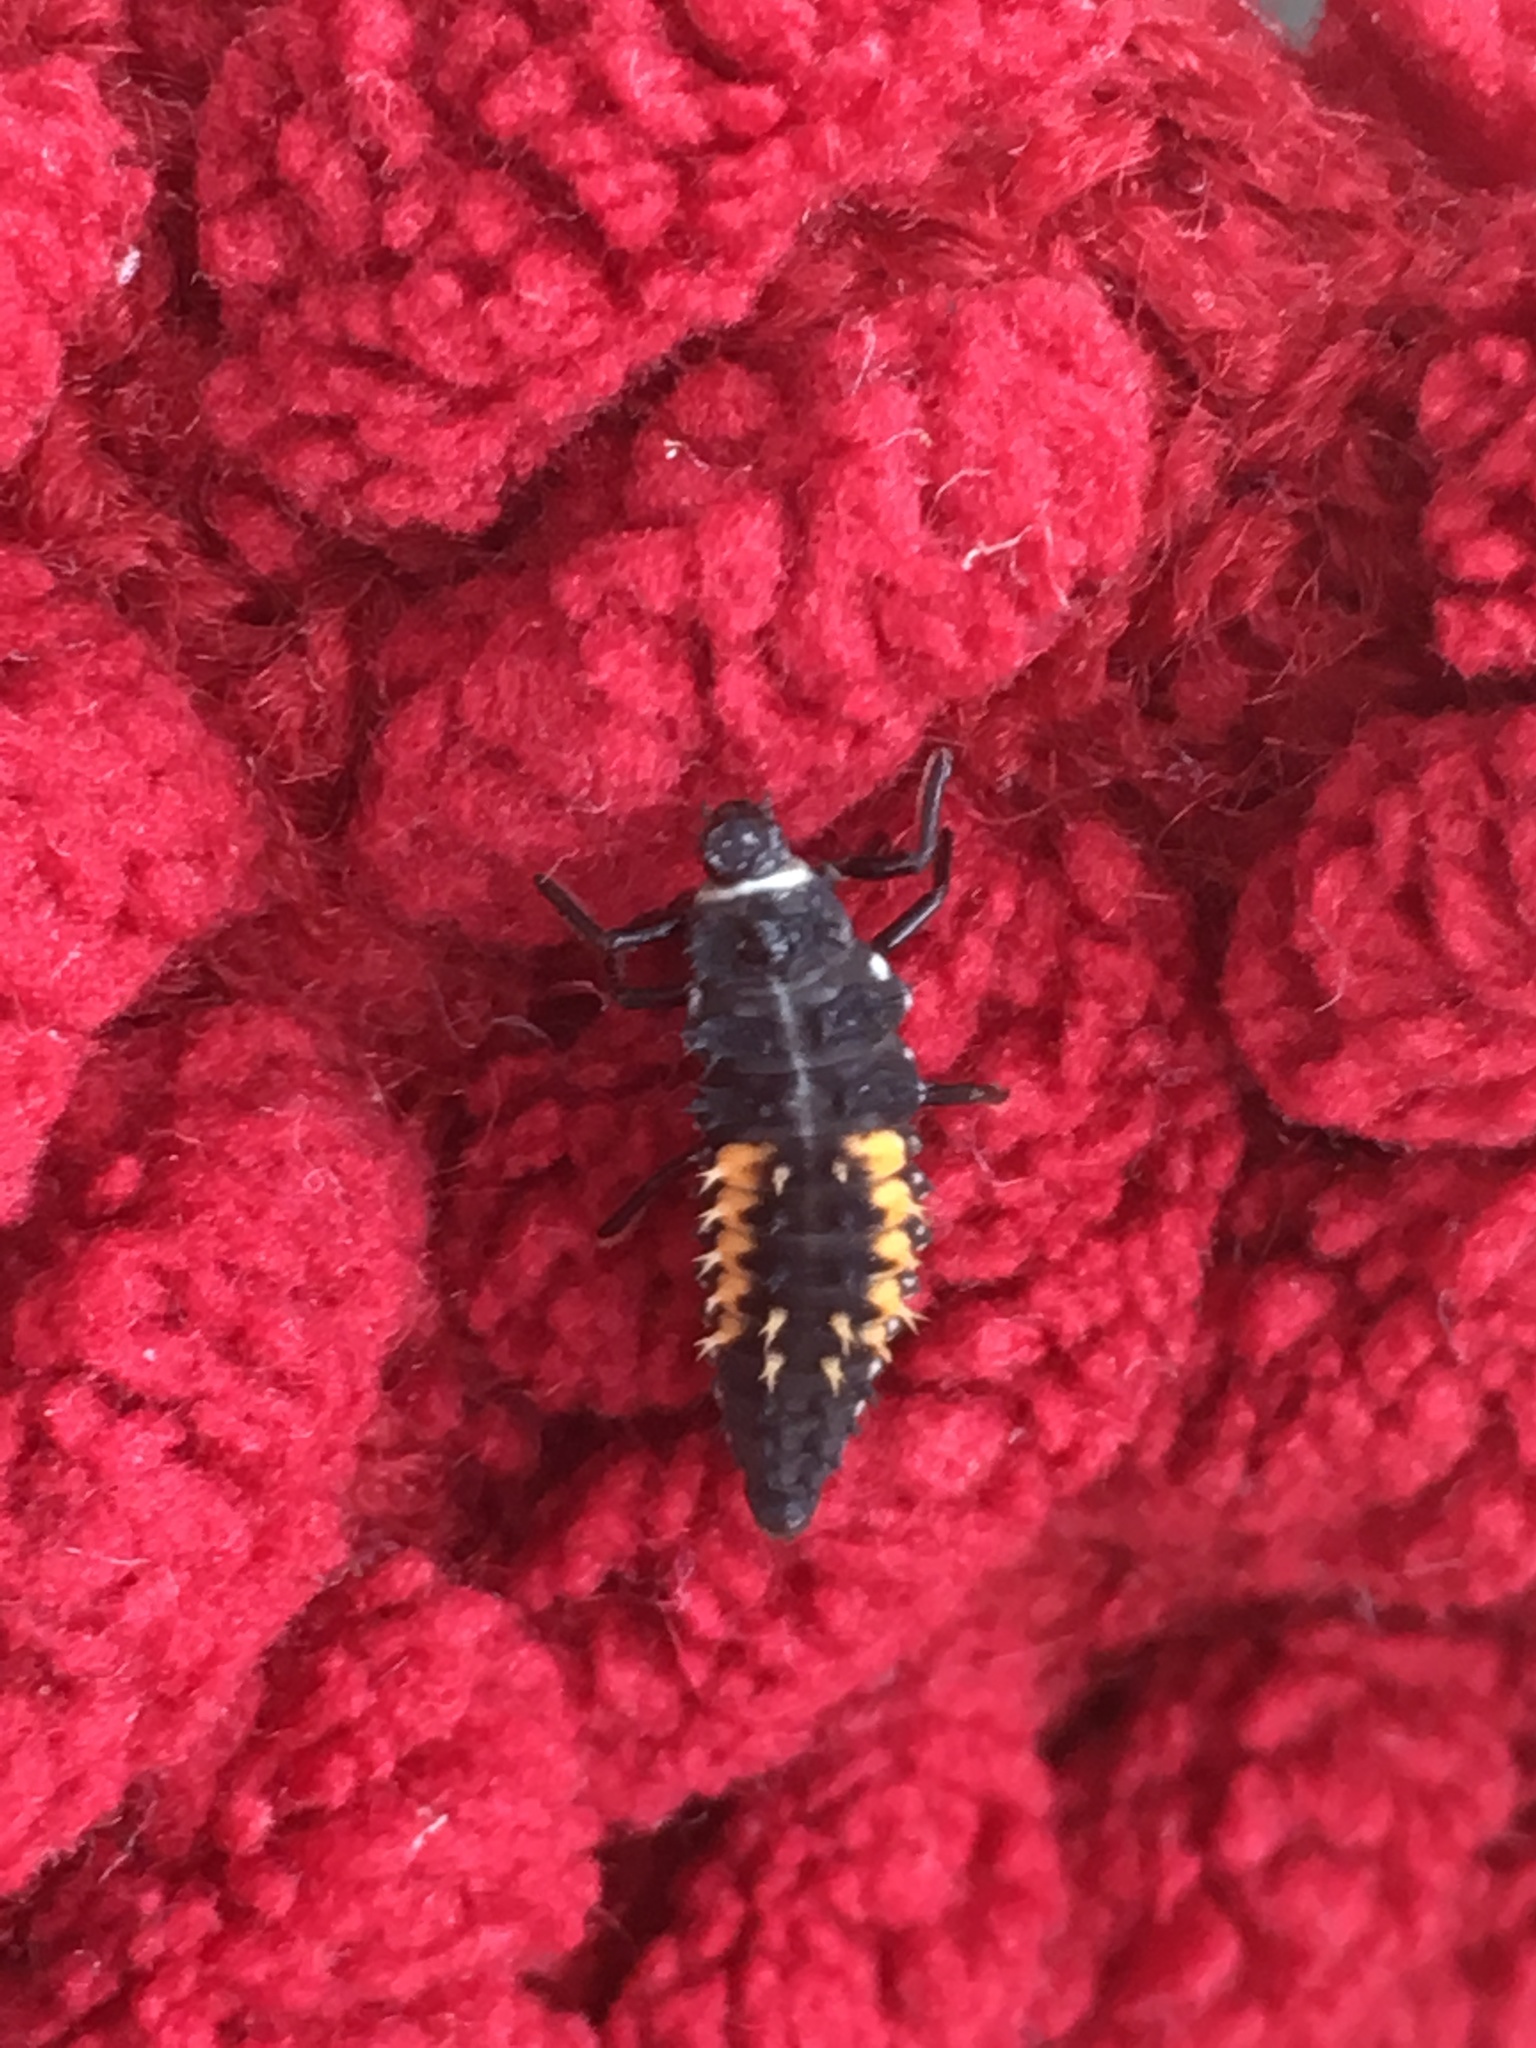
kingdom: Animalia
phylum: Arthropoda
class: Insecta
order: Coleoptera
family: Coccinellidae
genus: Harmonia
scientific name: Harmonia axyridis
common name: Harlequin ladybird
